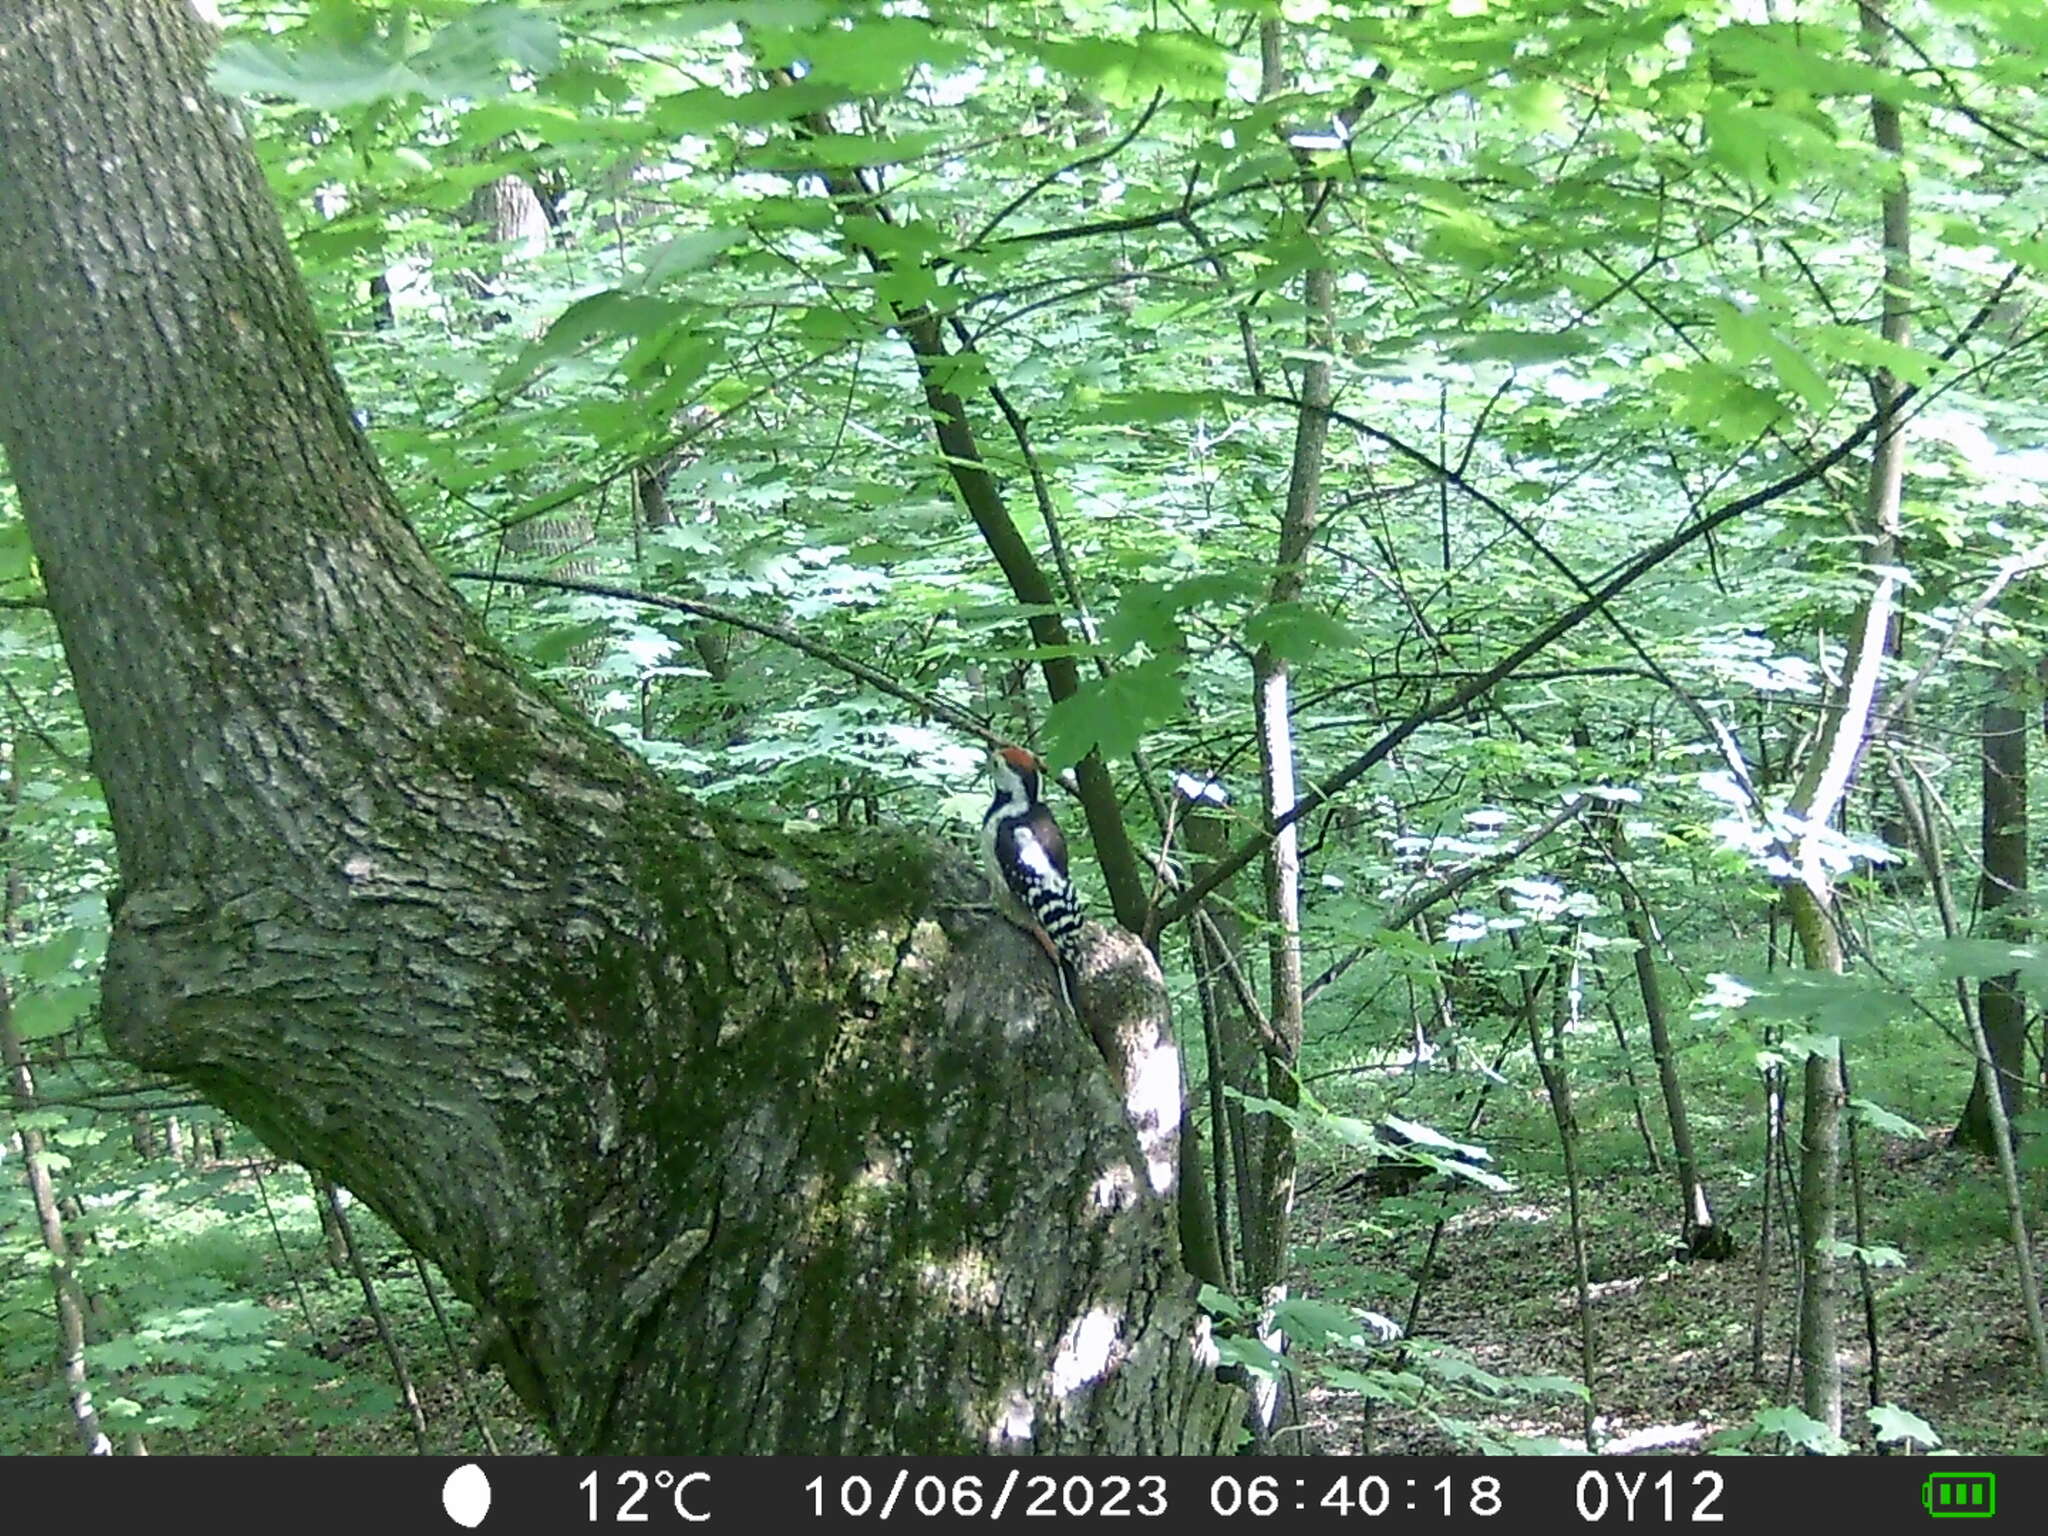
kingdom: Animalia
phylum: Chordata
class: Aves
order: Piciformes
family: Picidae
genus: Dendrocoptes
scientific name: Dendrocoptes medius
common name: Middle spotted woodpecker
